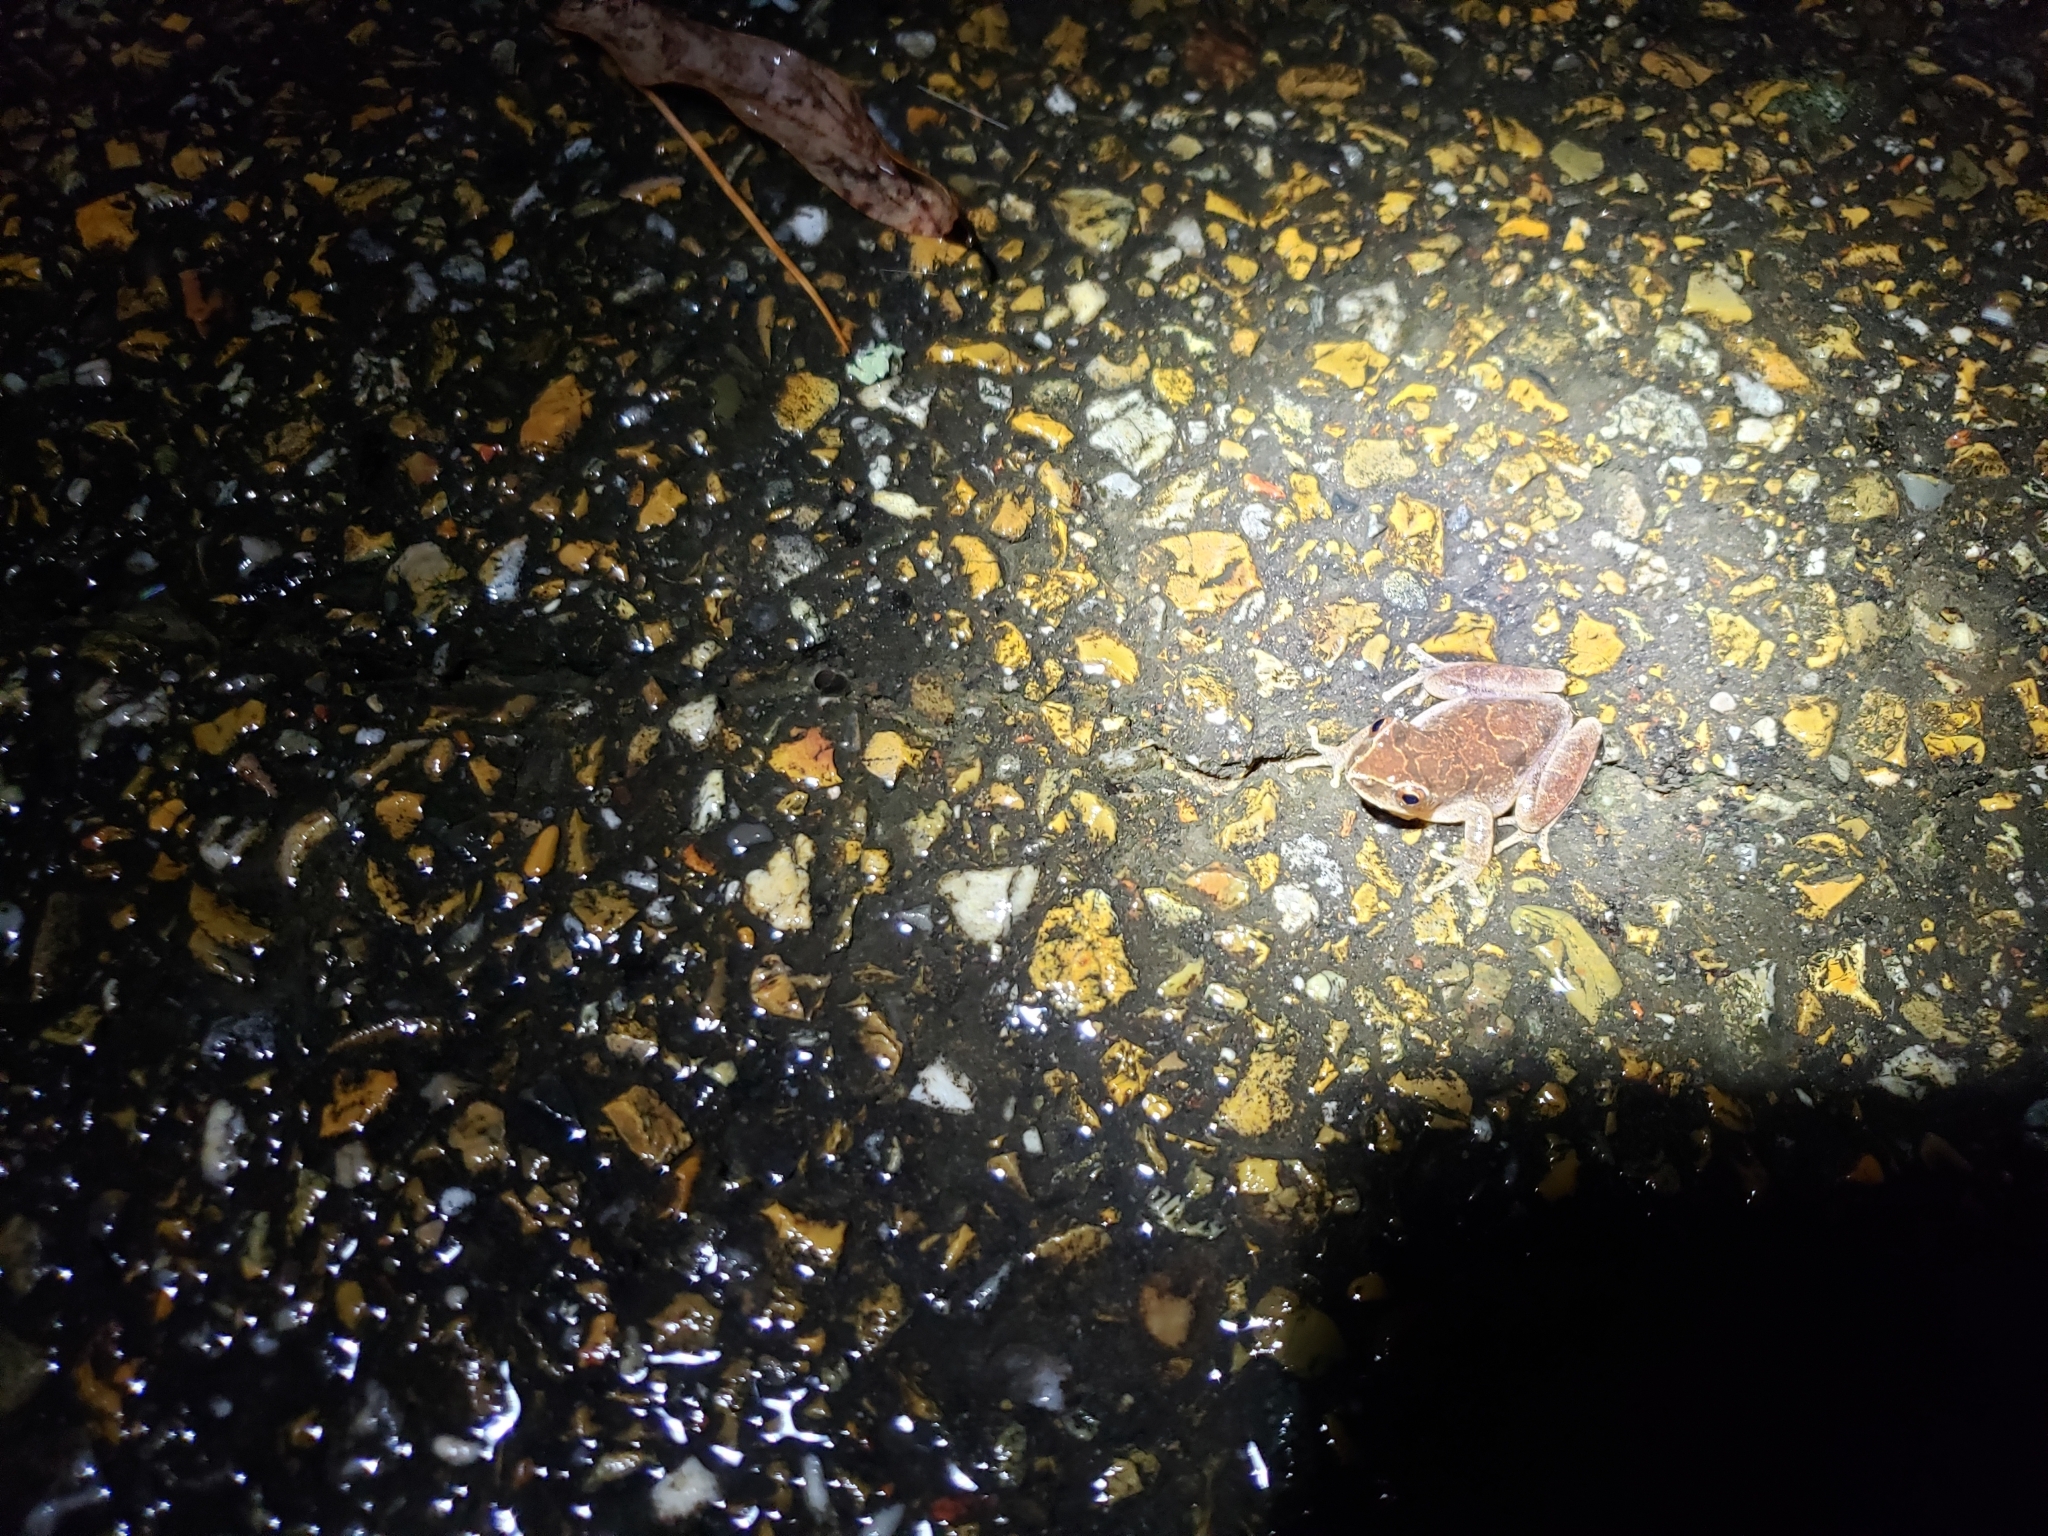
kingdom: Animalia
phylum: Chordata
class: Amphibia
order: Anura
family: Hylidae
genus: Pseudacris
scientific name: Pseudacris crucifer
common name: Spring peeper
